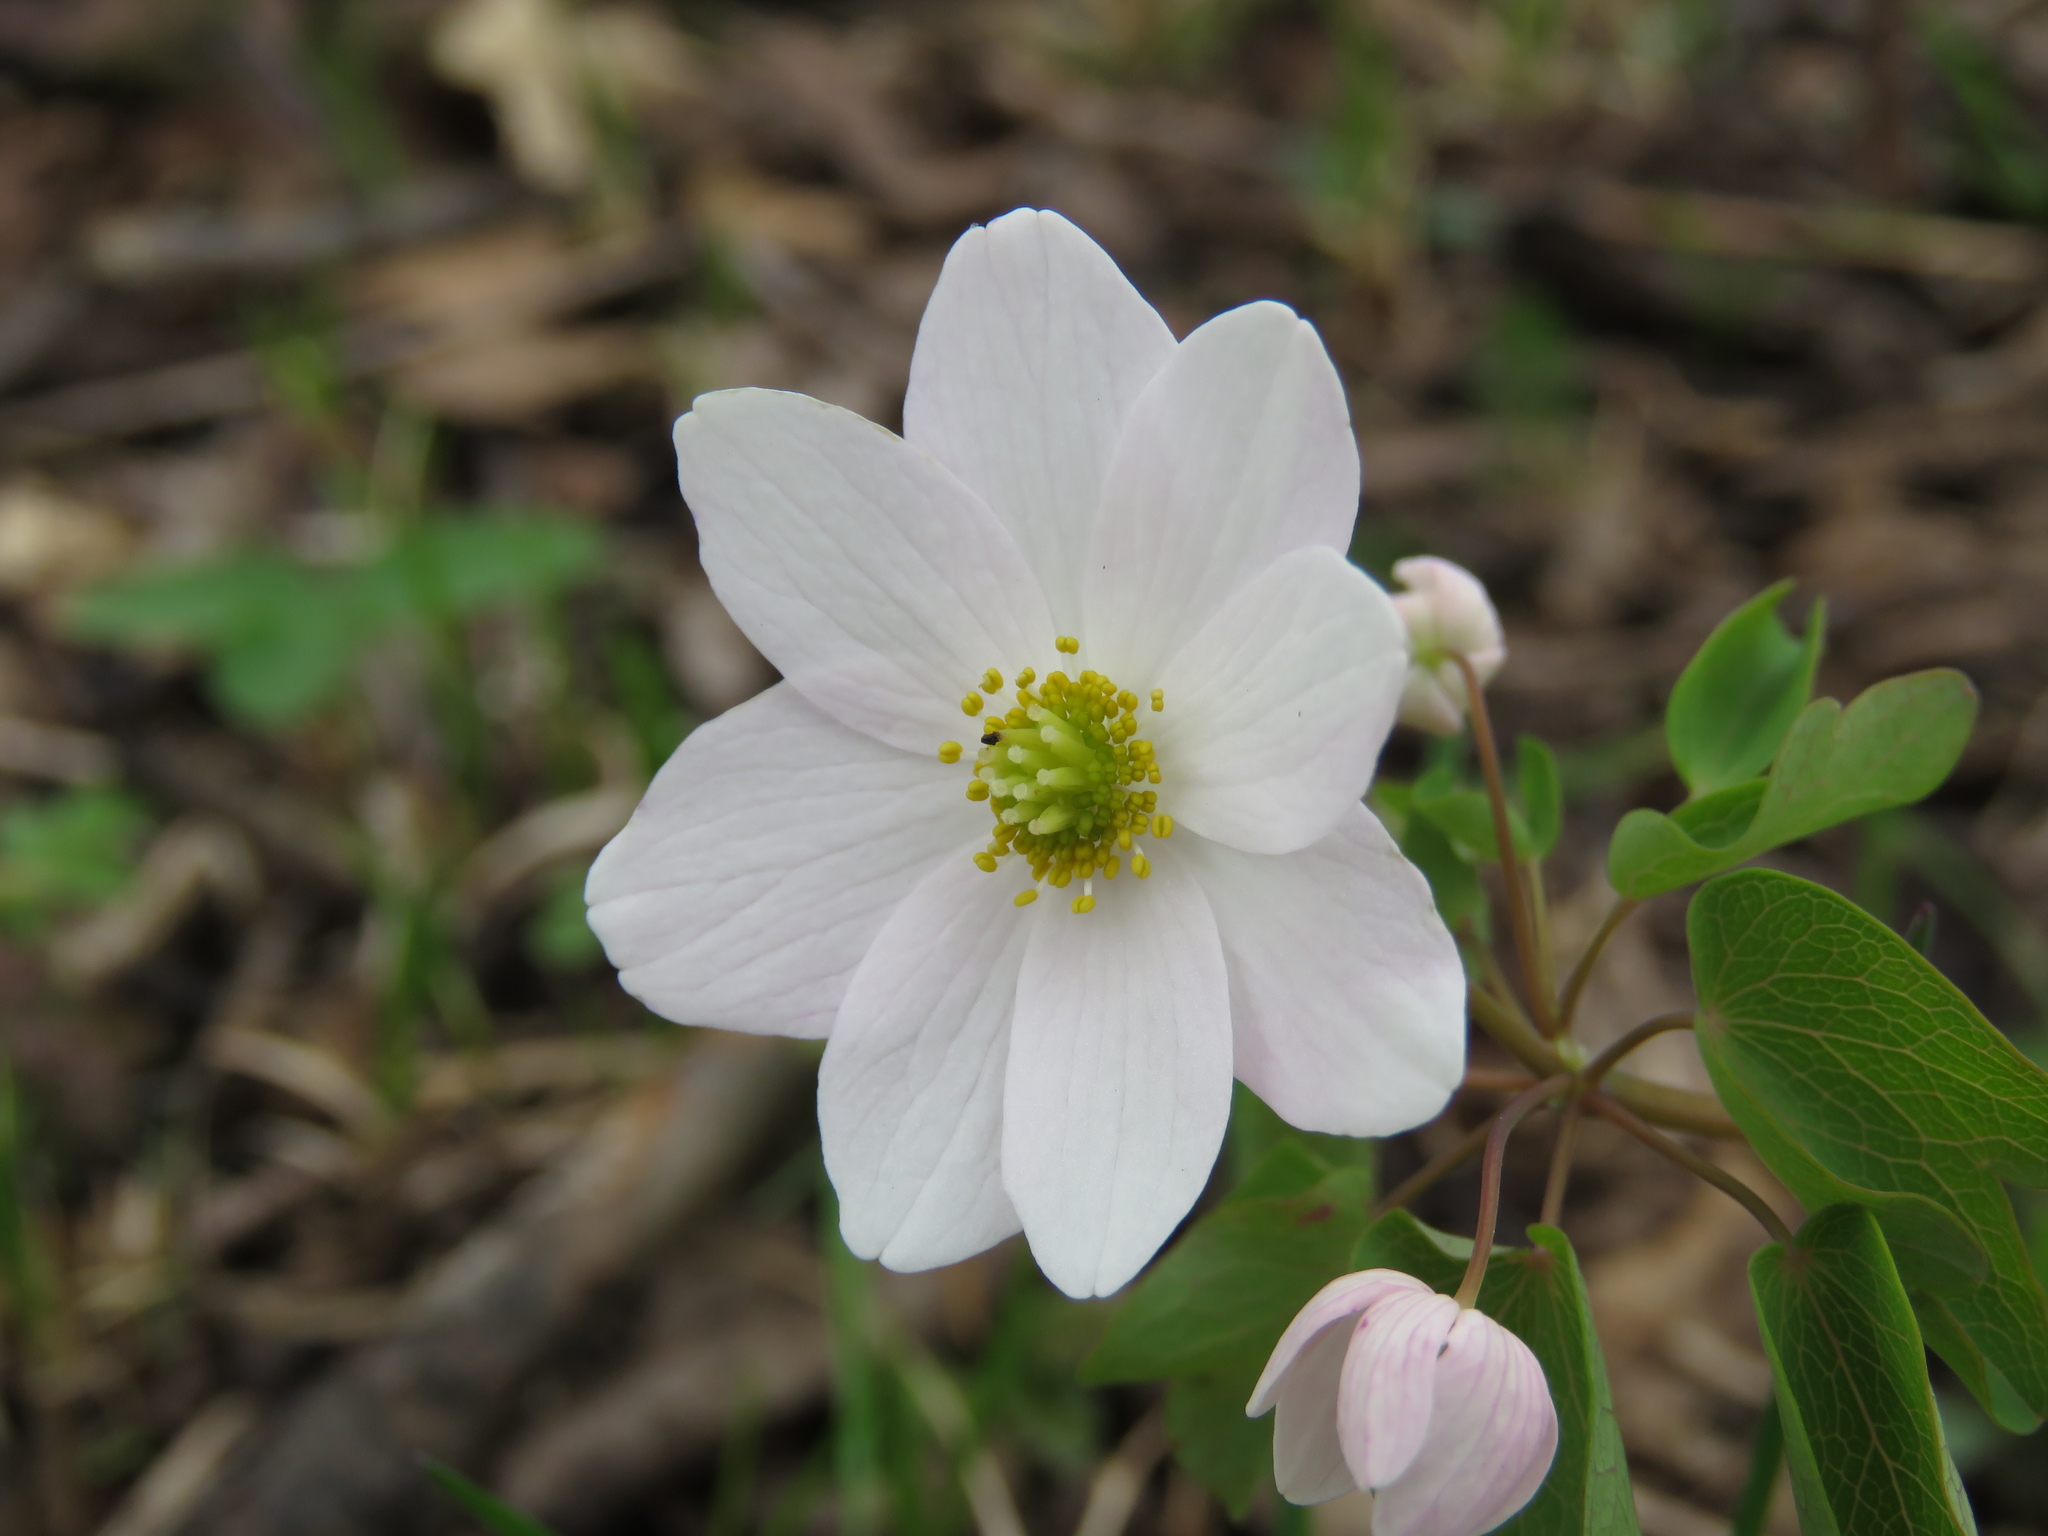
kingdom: Plantae
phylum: Tracheophyta
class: Magnoliopsida
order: Ranunculales
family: Ranunculaceae
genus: Thalictrum
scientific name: Thalictrum thalictroides
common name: Rue-anemone
